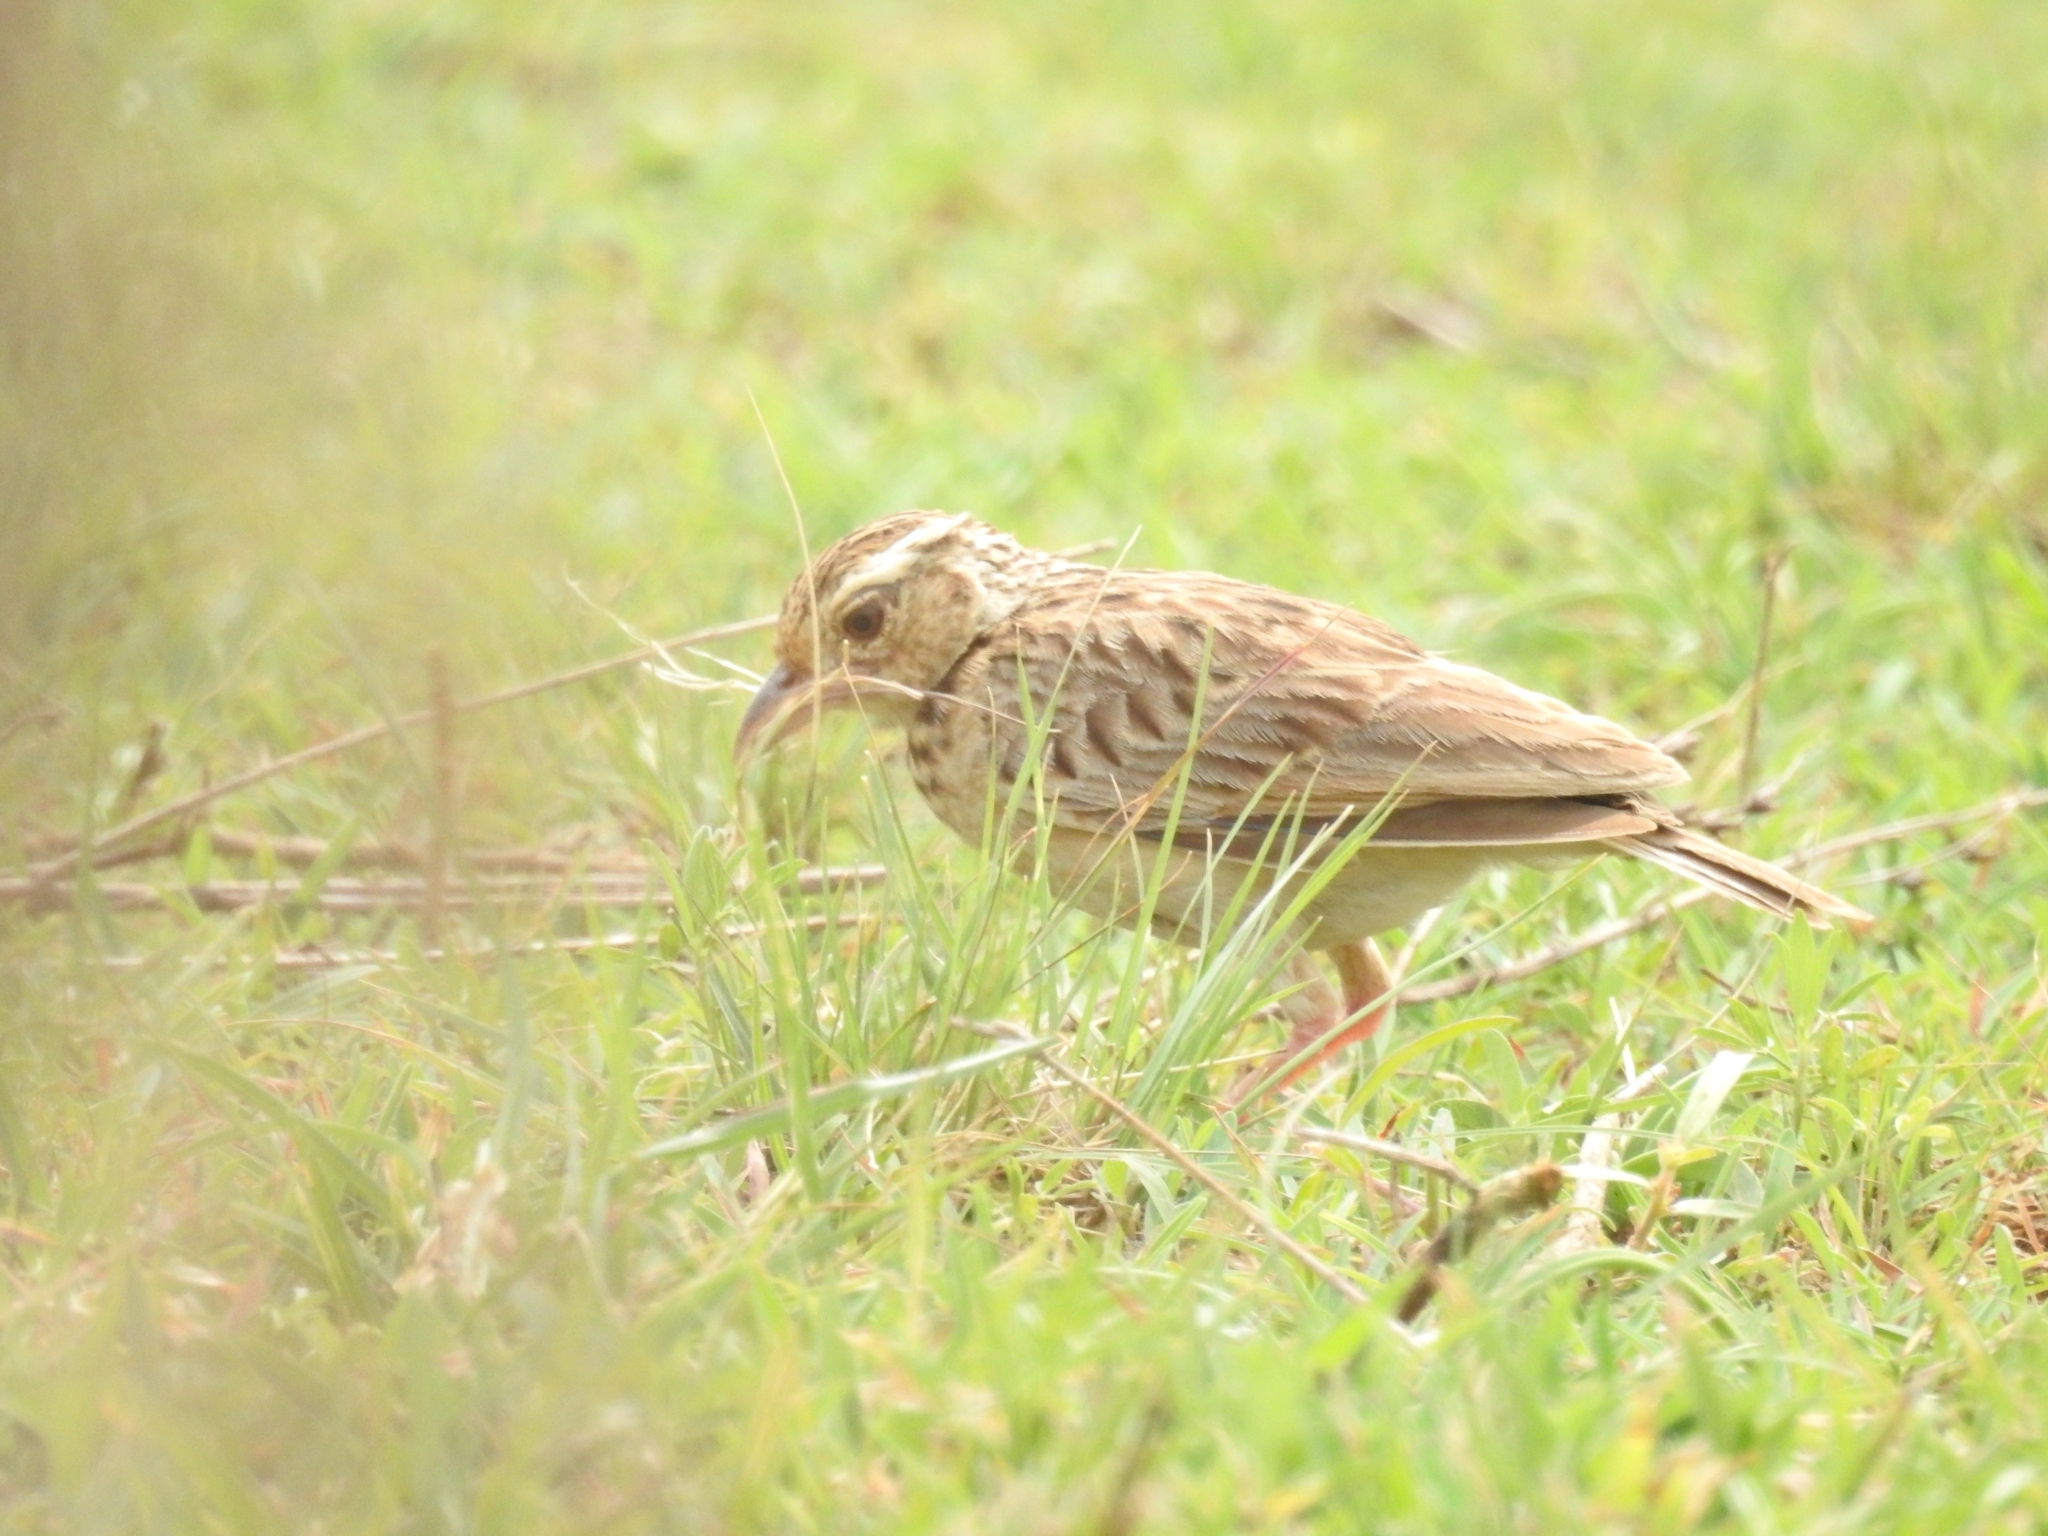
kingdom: Animalia
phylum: Chordata
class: Aves
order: Passeriformes
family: Alaudidae
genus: Mirafra
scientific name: Mirafra affinis
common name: Jerdon's bushlark
